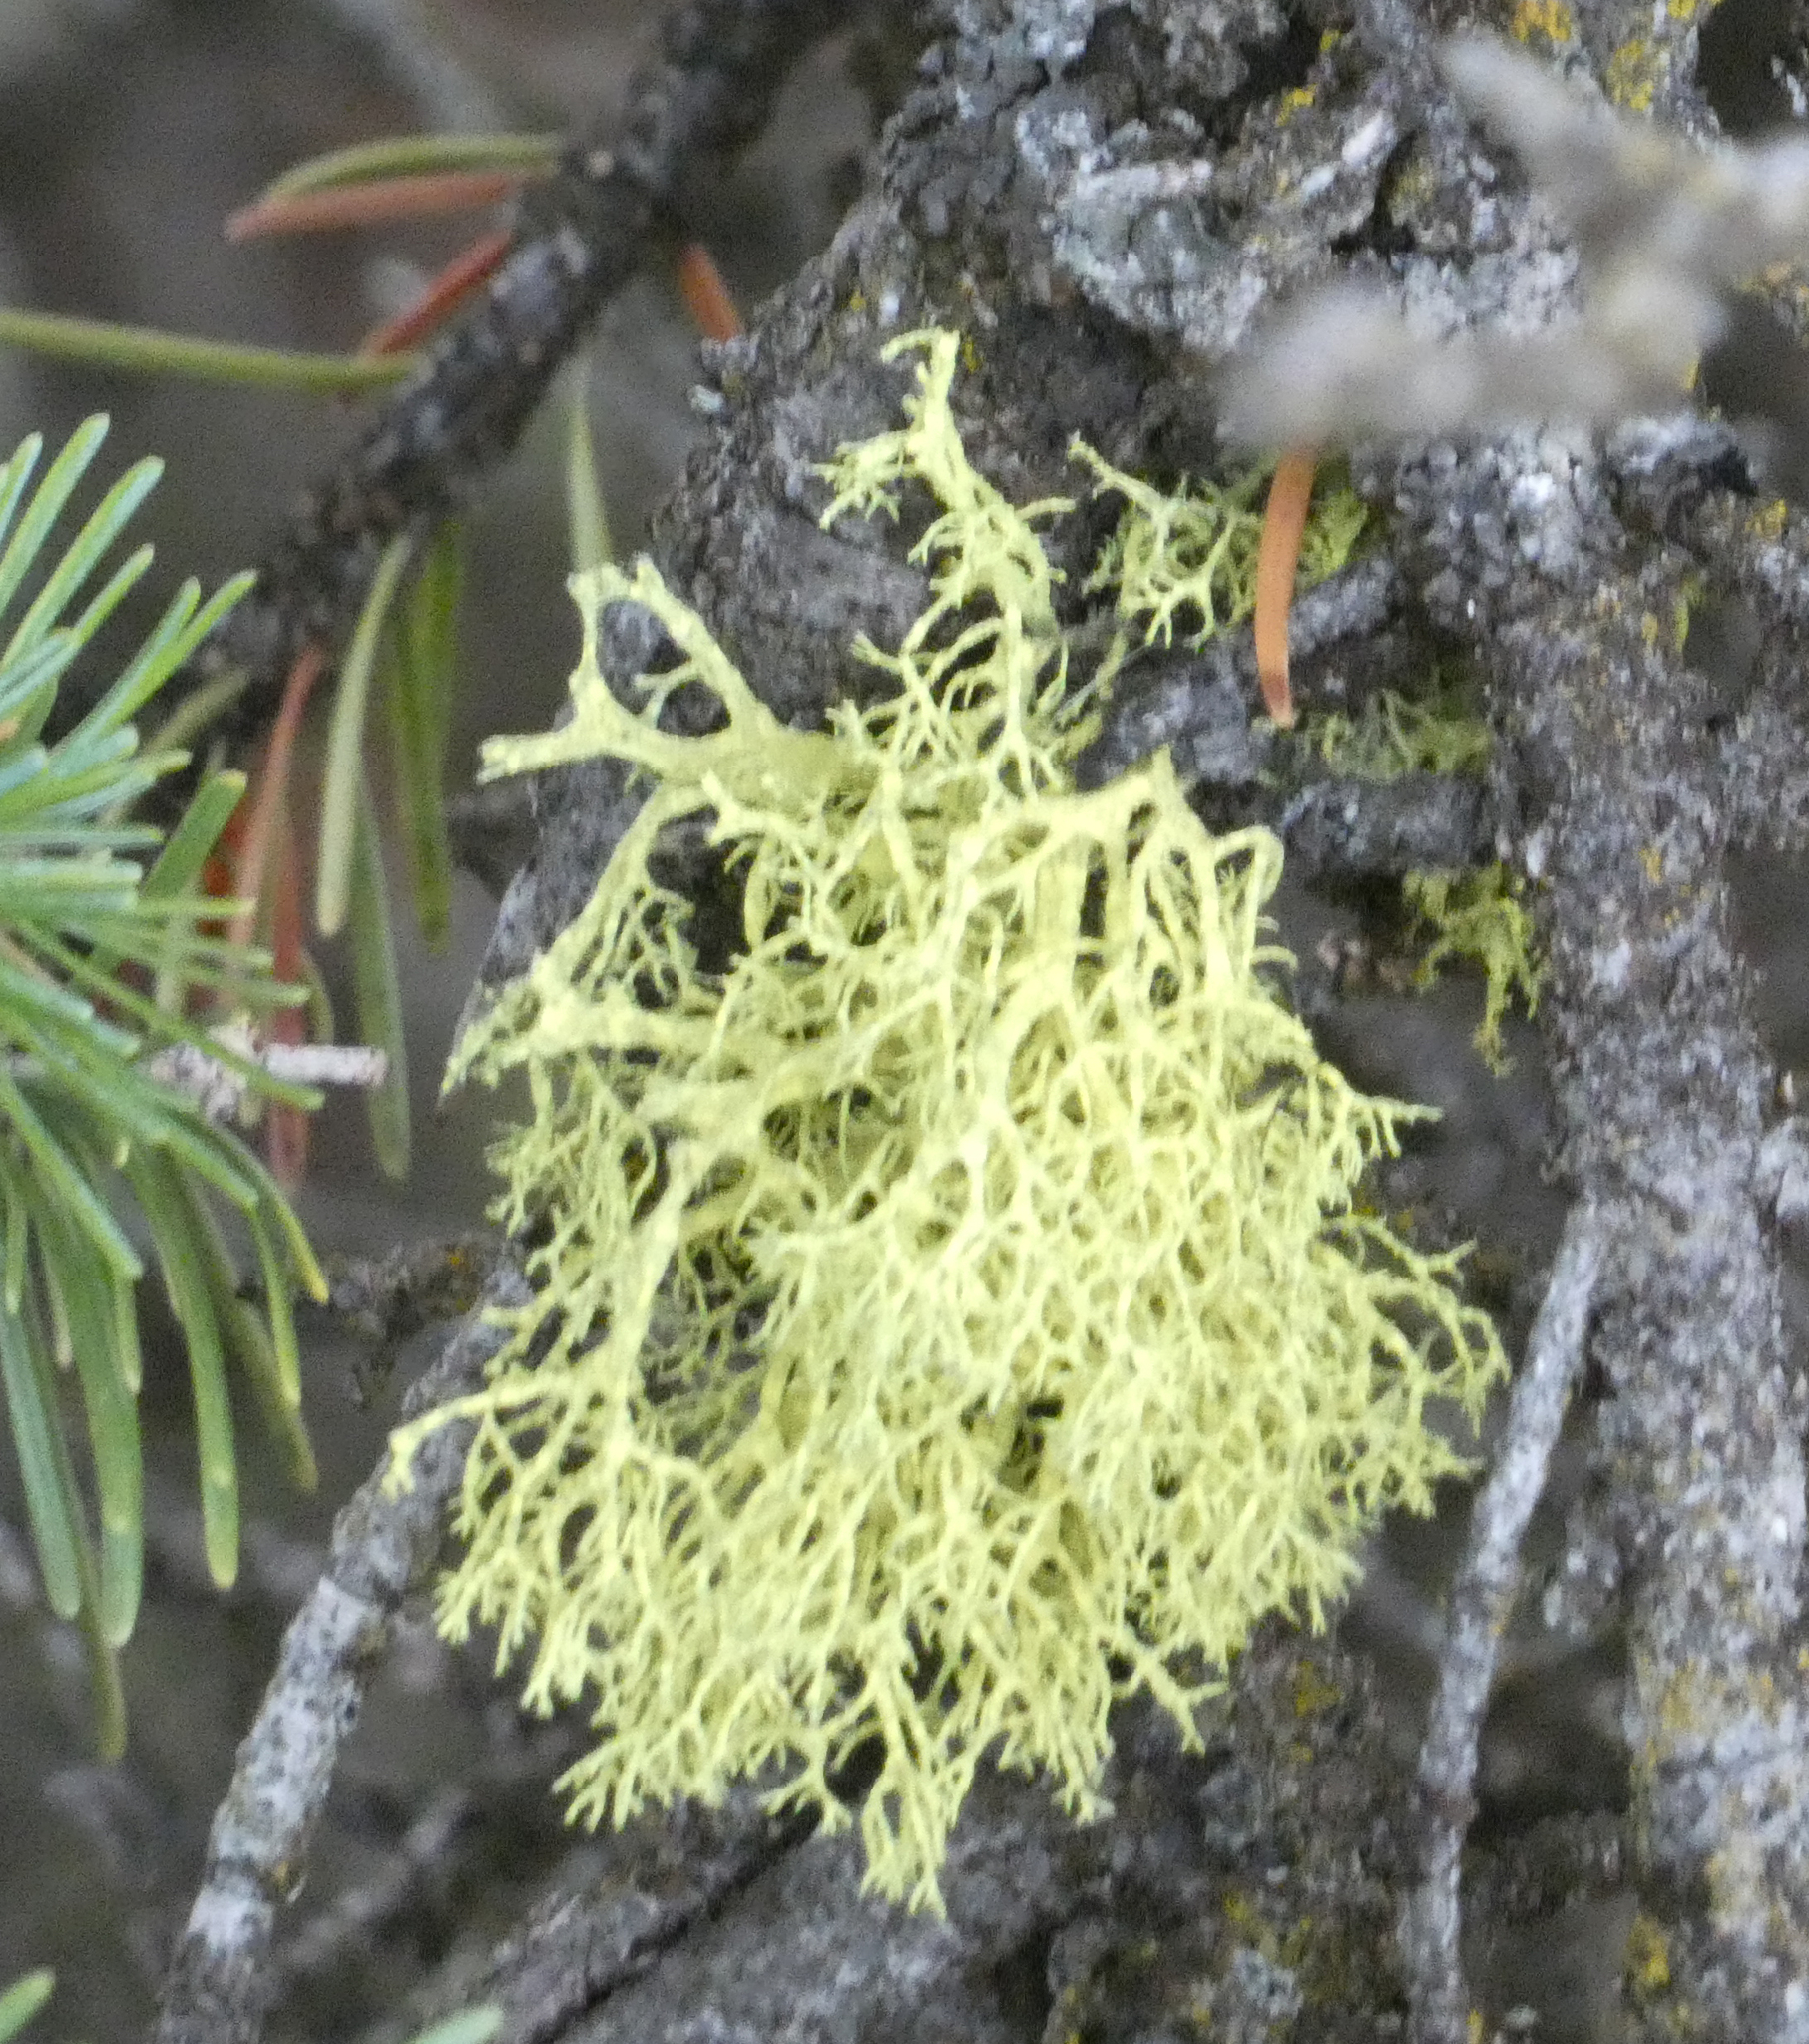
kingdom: Fungi
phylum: Ascomycota
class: Lecanoromycetes
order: Lecanorales
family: Parmeliaceae
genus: Letharia
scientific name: Letharia vulpina
